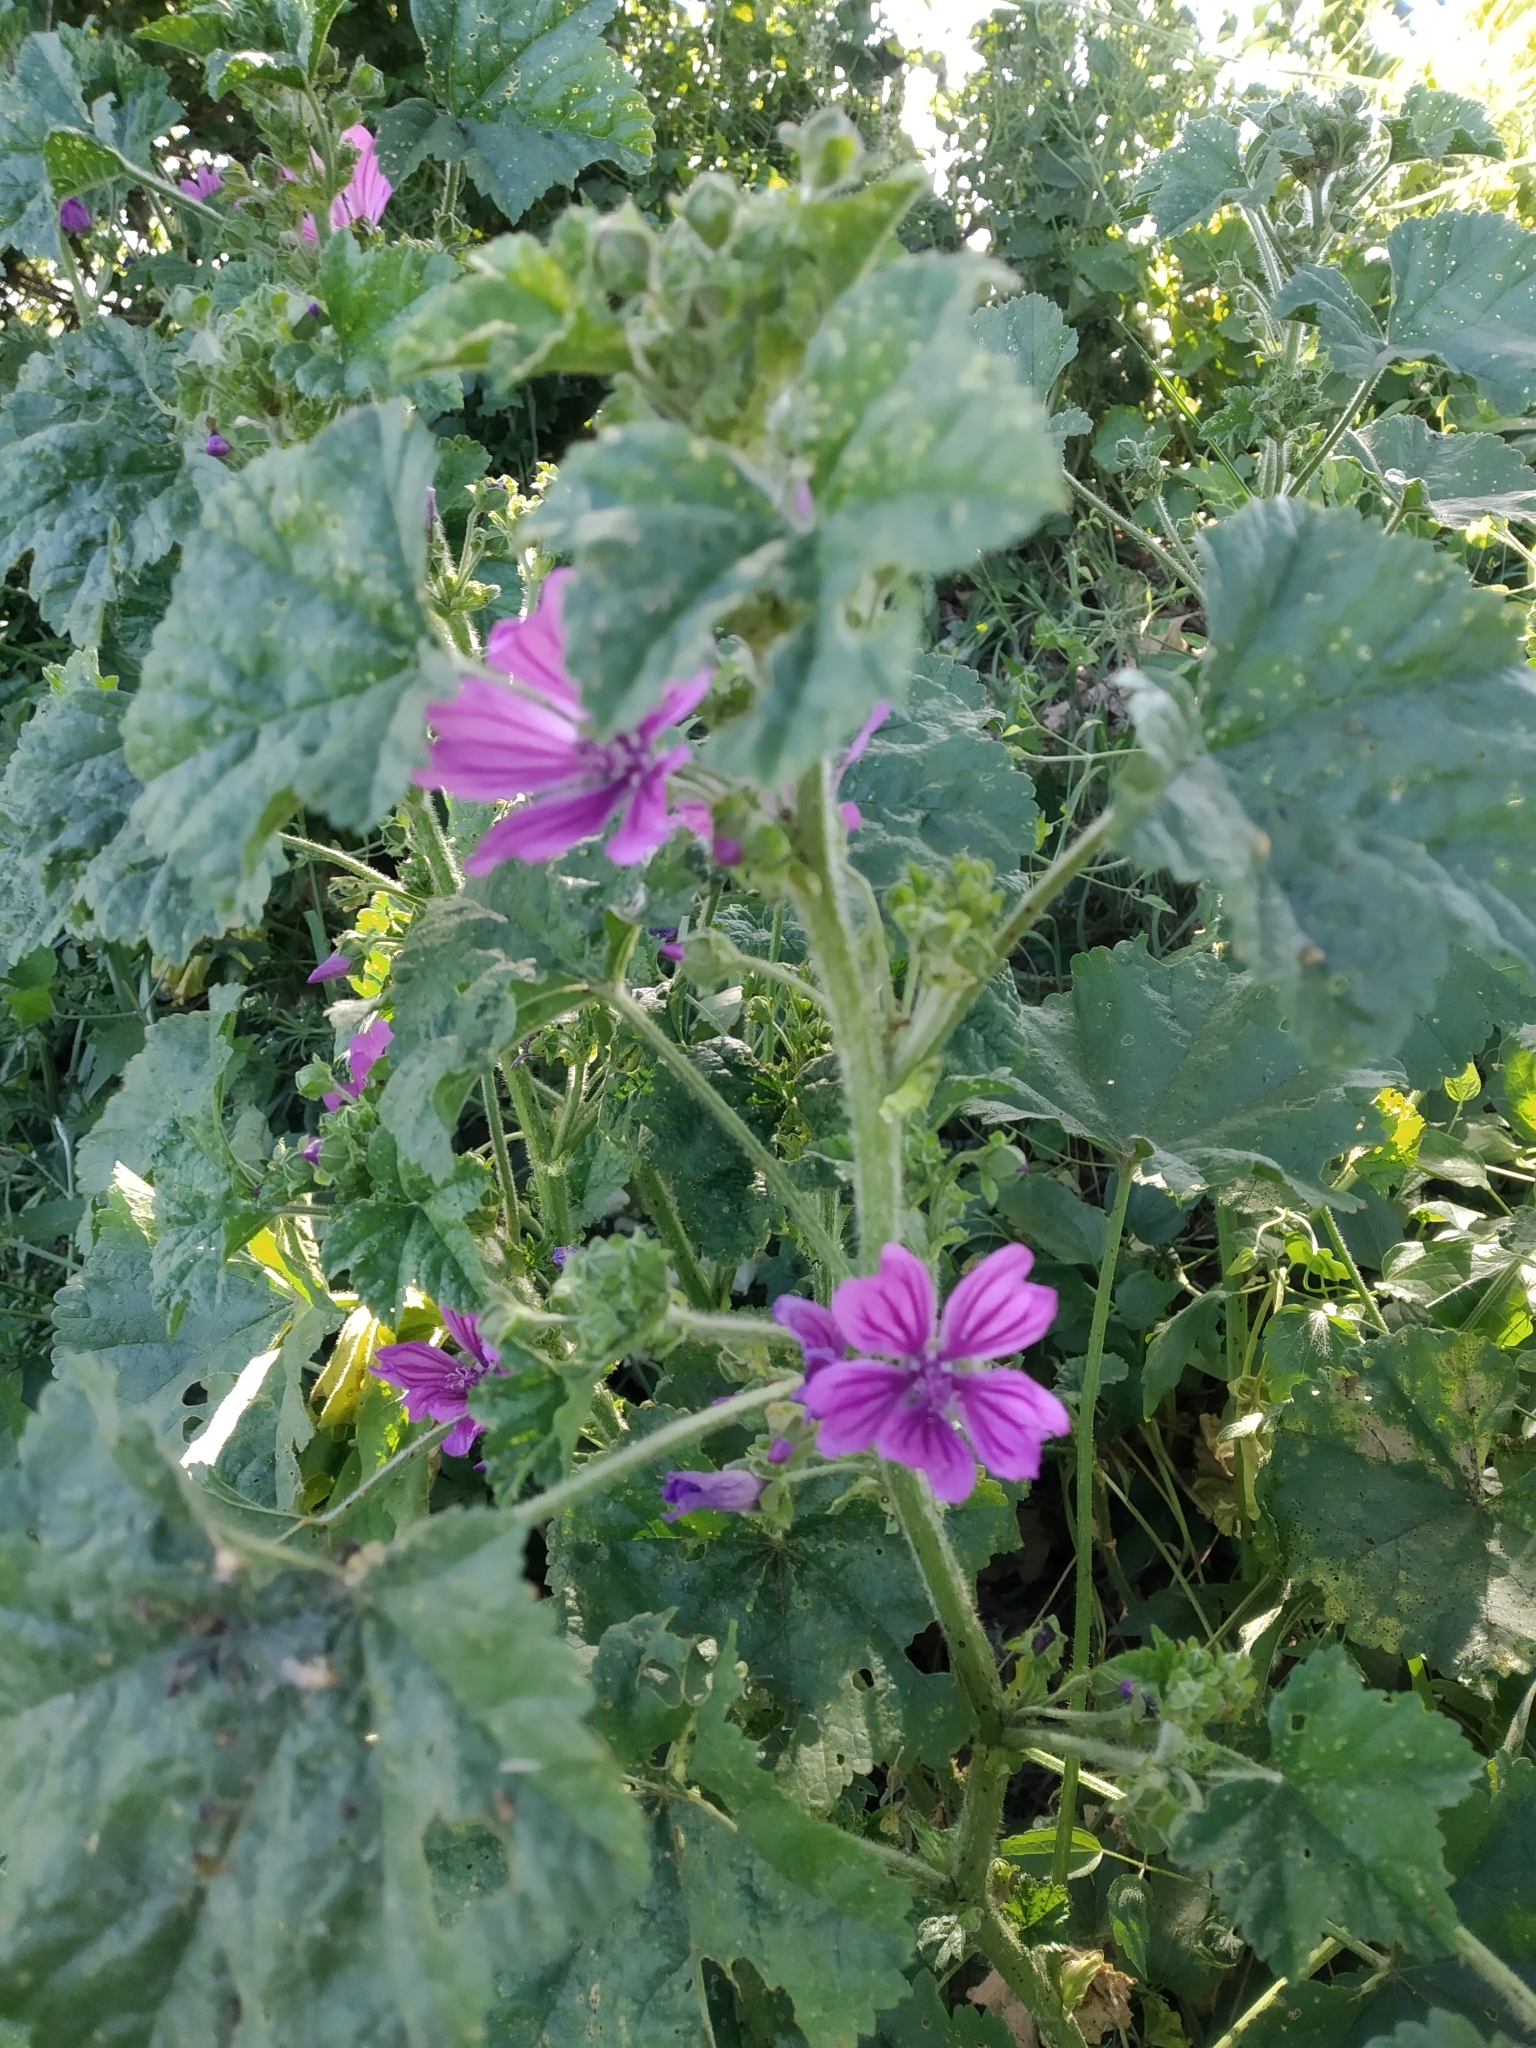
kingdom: Plantae
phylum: Tracheophyta
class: Magnoliopsida
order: Malvales
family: Malvaceae
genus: Malva
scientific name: Malva sylvestris
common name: Common mallow
